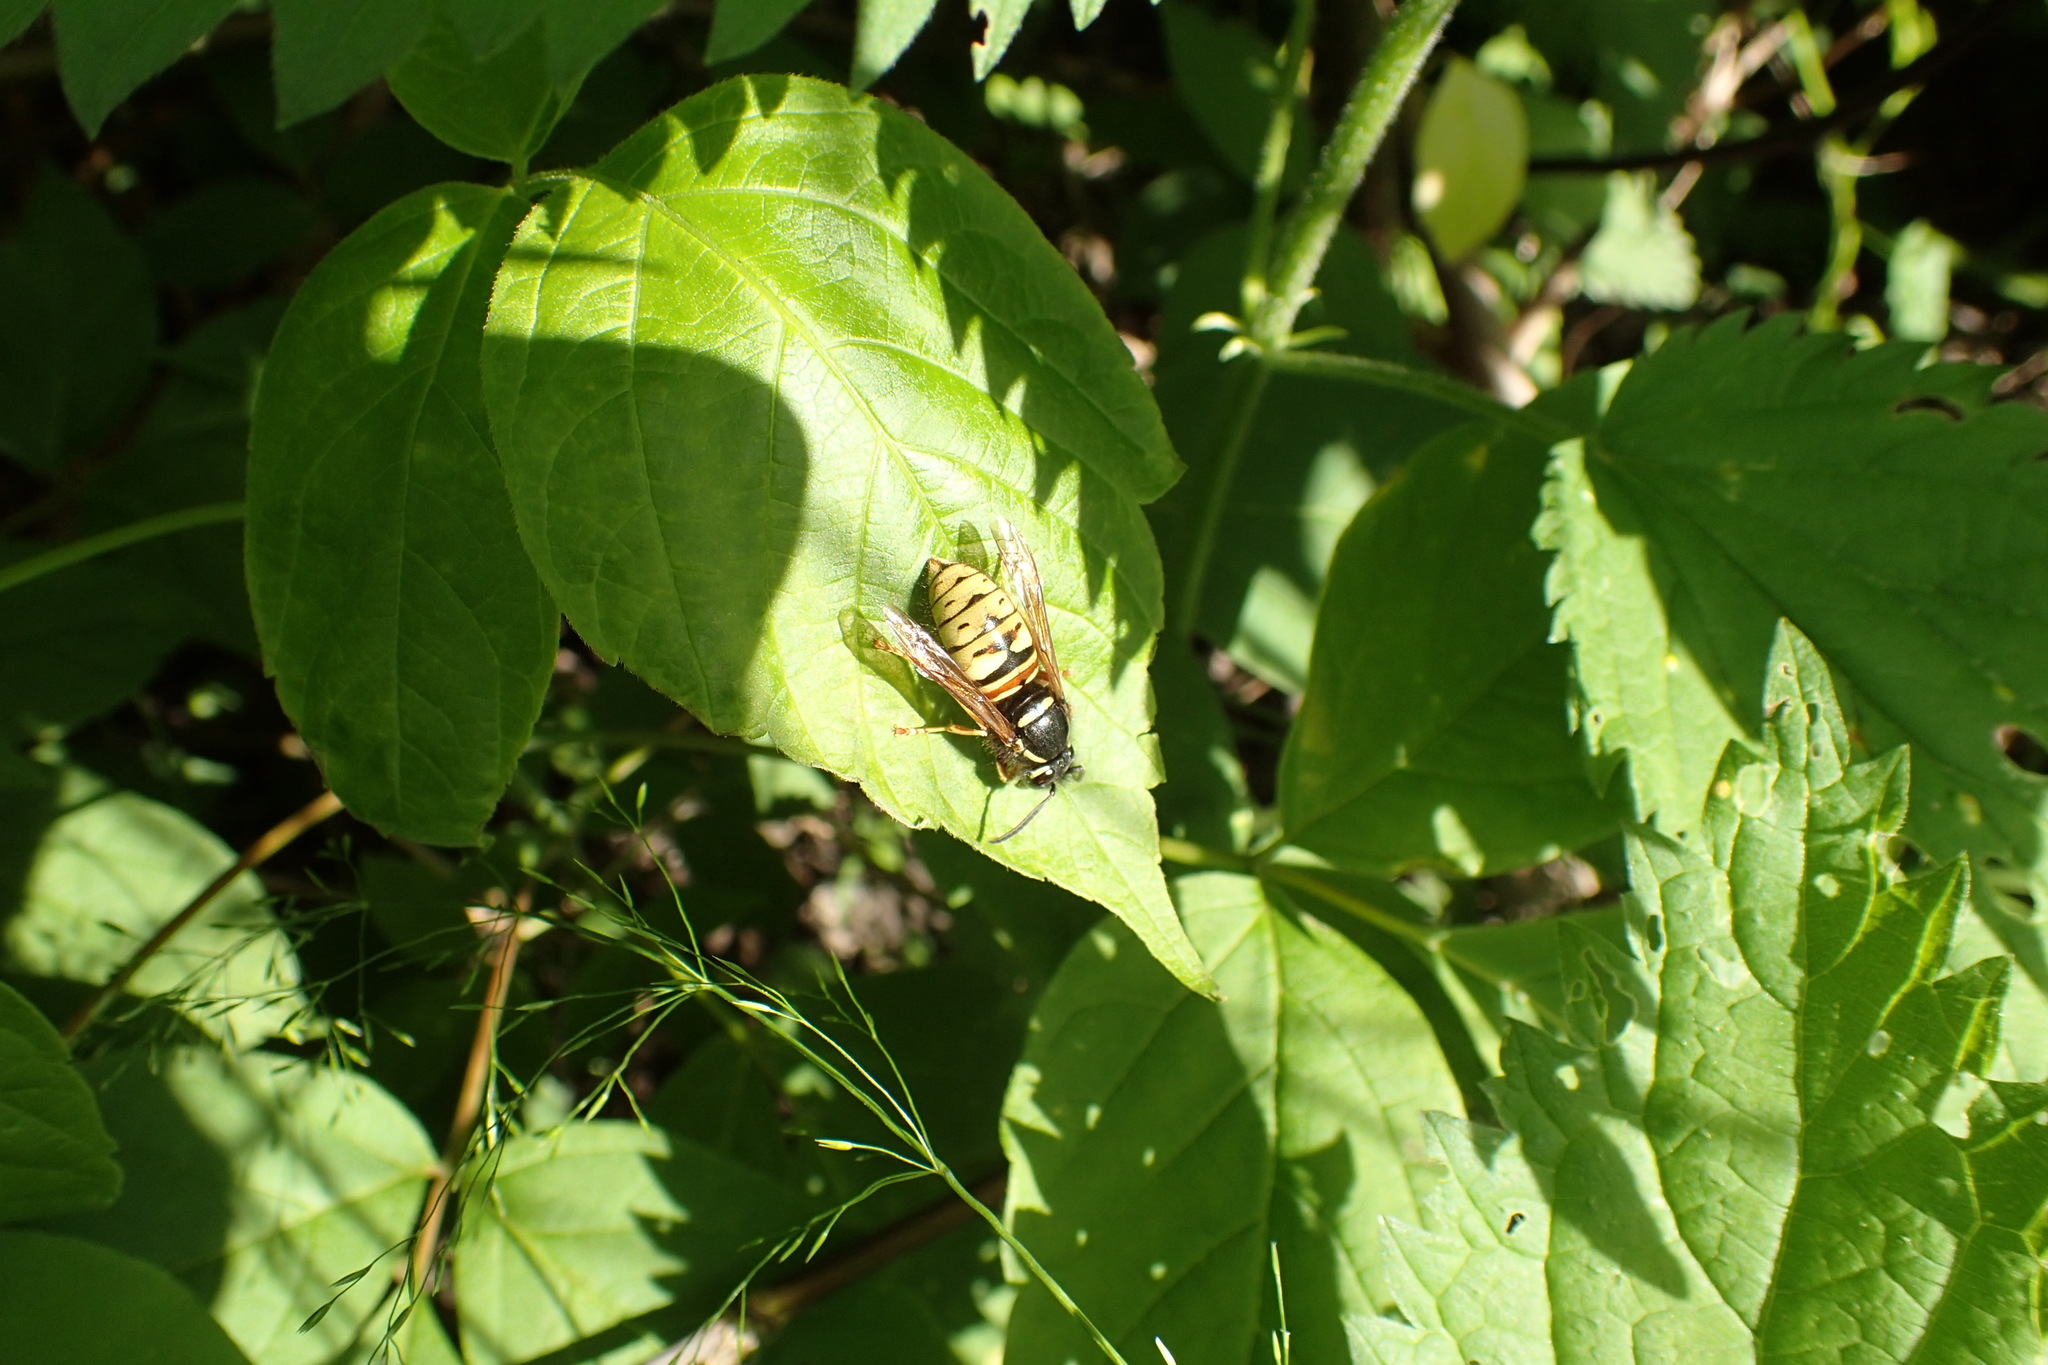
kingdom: Animalia
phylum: Arthropoda
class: Insecta
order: Hymenoptera
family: Vespidae
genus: Vespula
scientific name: Vespula rufa
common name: Red wasp
